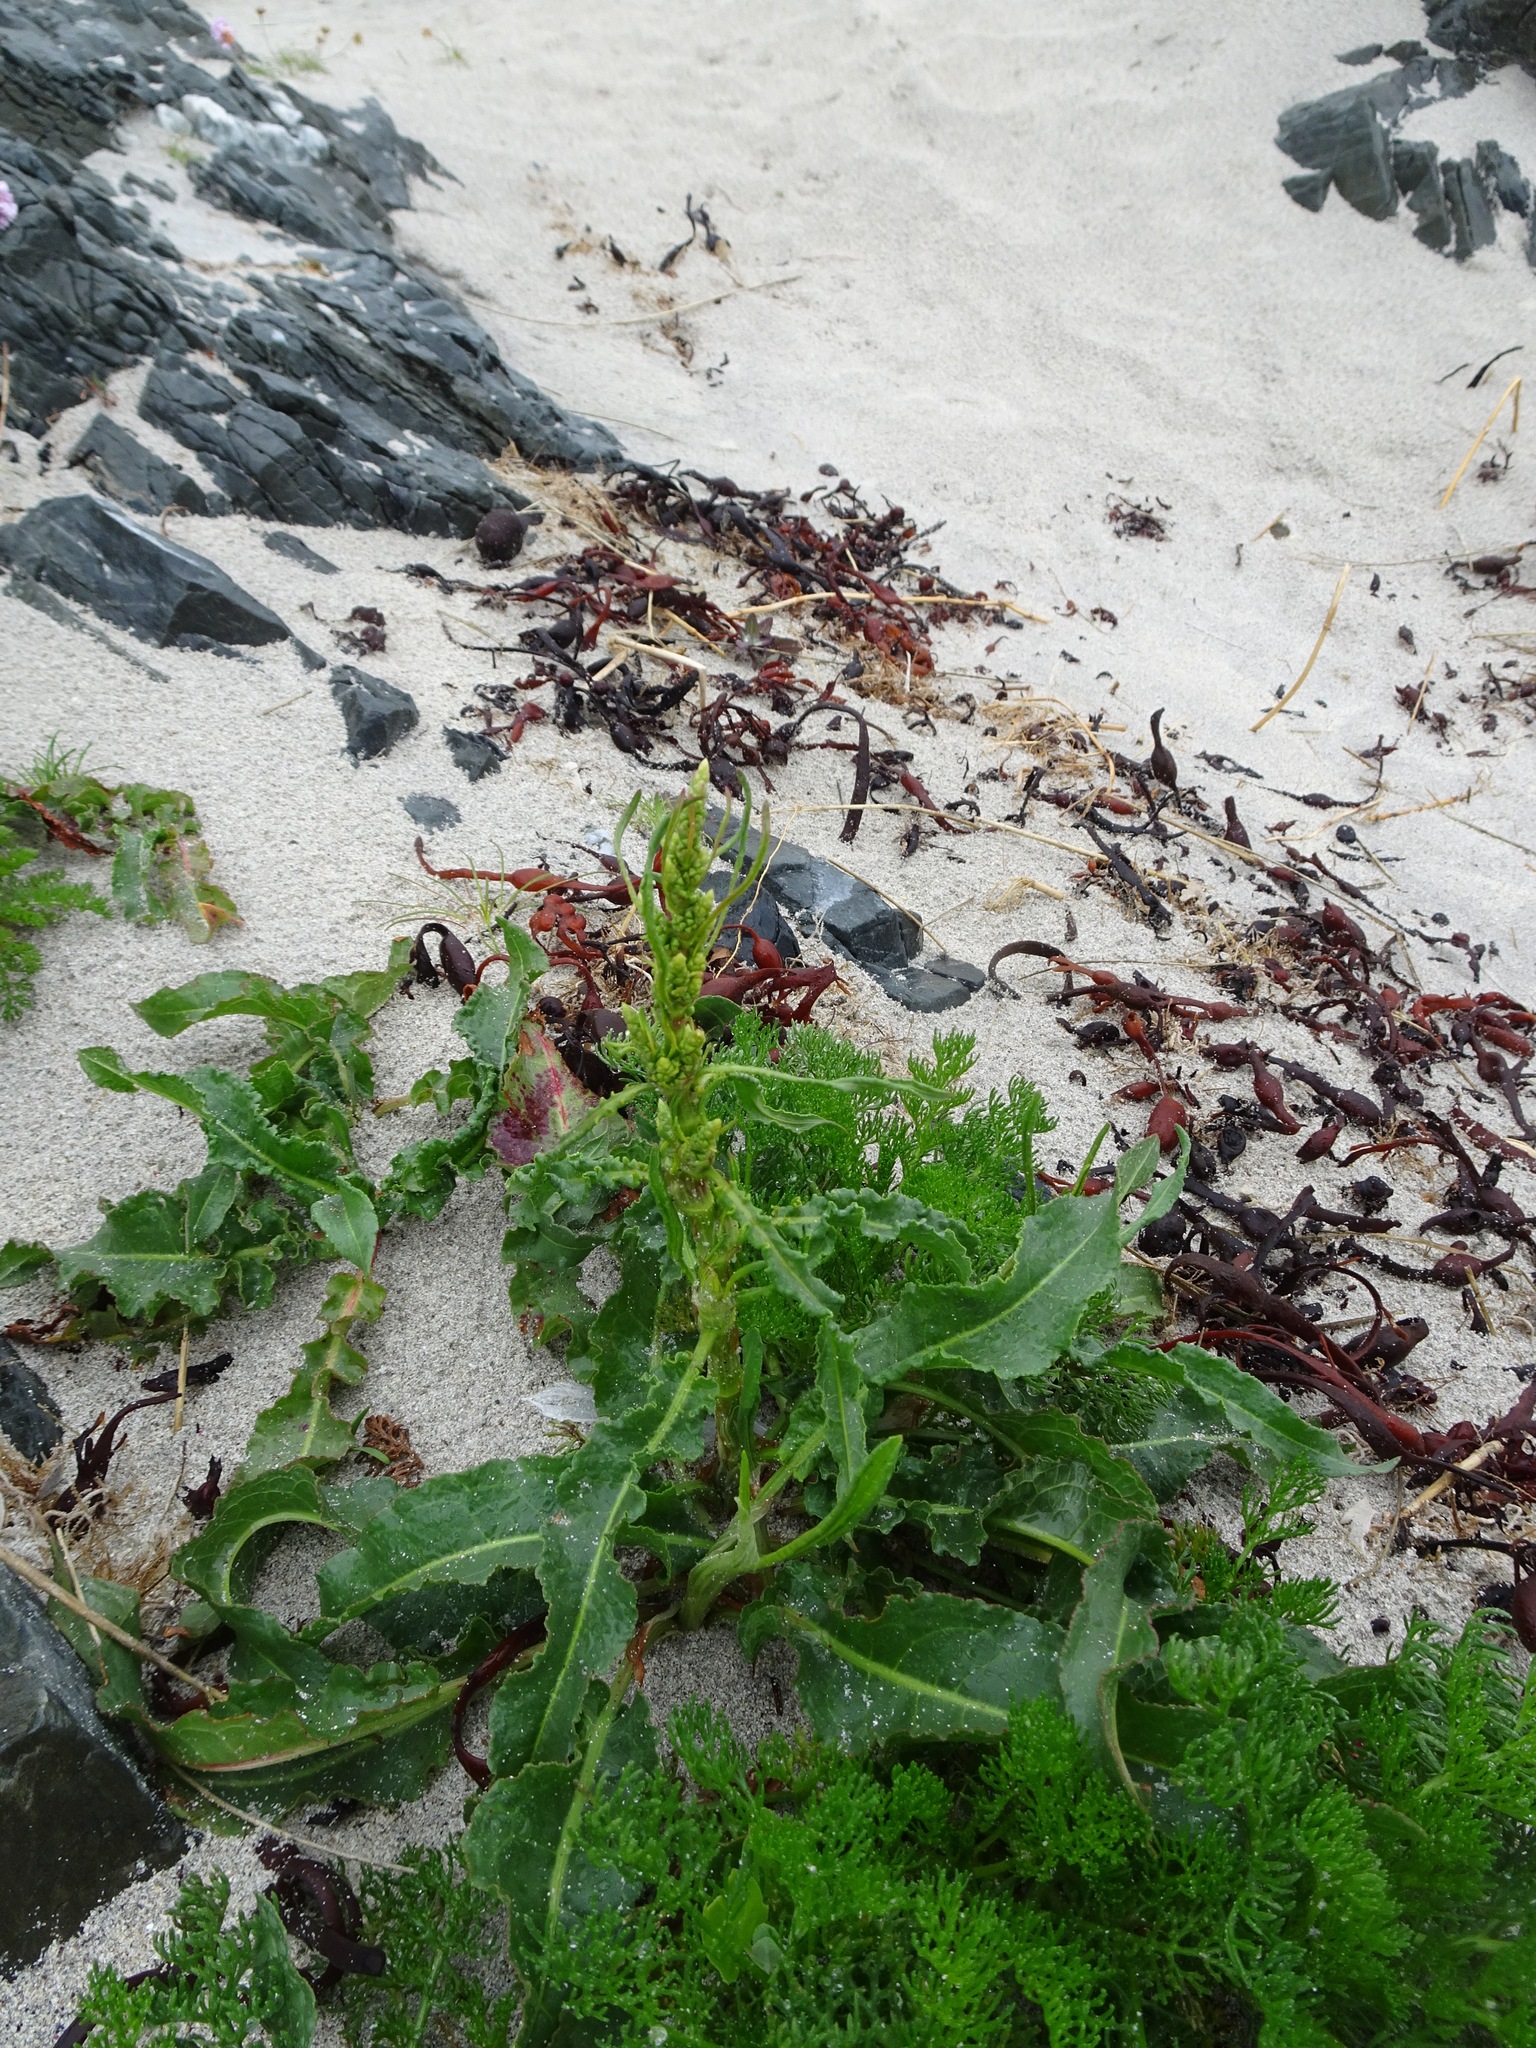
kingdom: Plantae
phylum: Tracheophyta
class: Magnoliopsida
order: Caryophyllales
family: Polygonaceae
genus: Rumex
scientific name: Rumex crispus
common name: Curled dock
